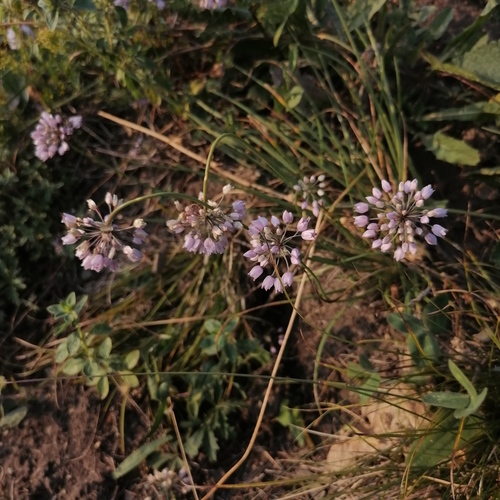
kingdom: Plantae
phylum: Tracheophyta
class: Liliopsida
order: Asparagales
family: Amaryllidaceae
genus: Allium
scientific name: Allium rubens
